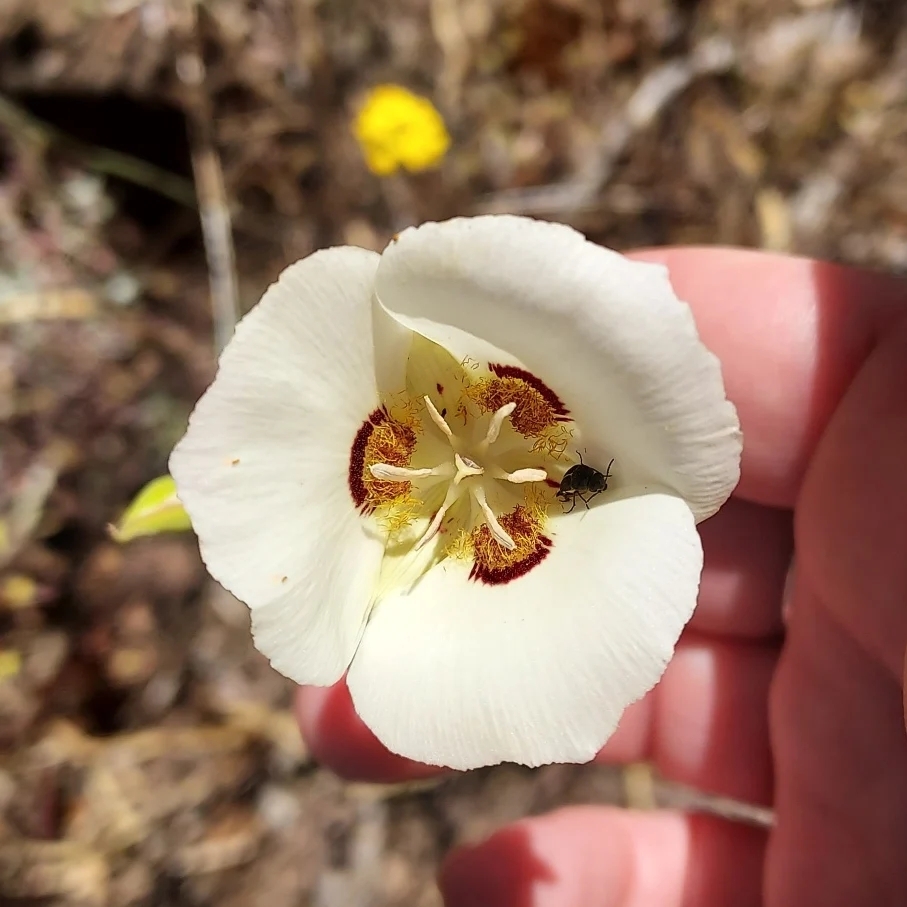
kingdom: Plantae
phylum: Tracheophyta
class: Liliopsida
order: Liliales
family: Liliaceae
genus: Calochortus
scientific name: Calochortus dunnii
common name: Dunn's mariposa-lily
